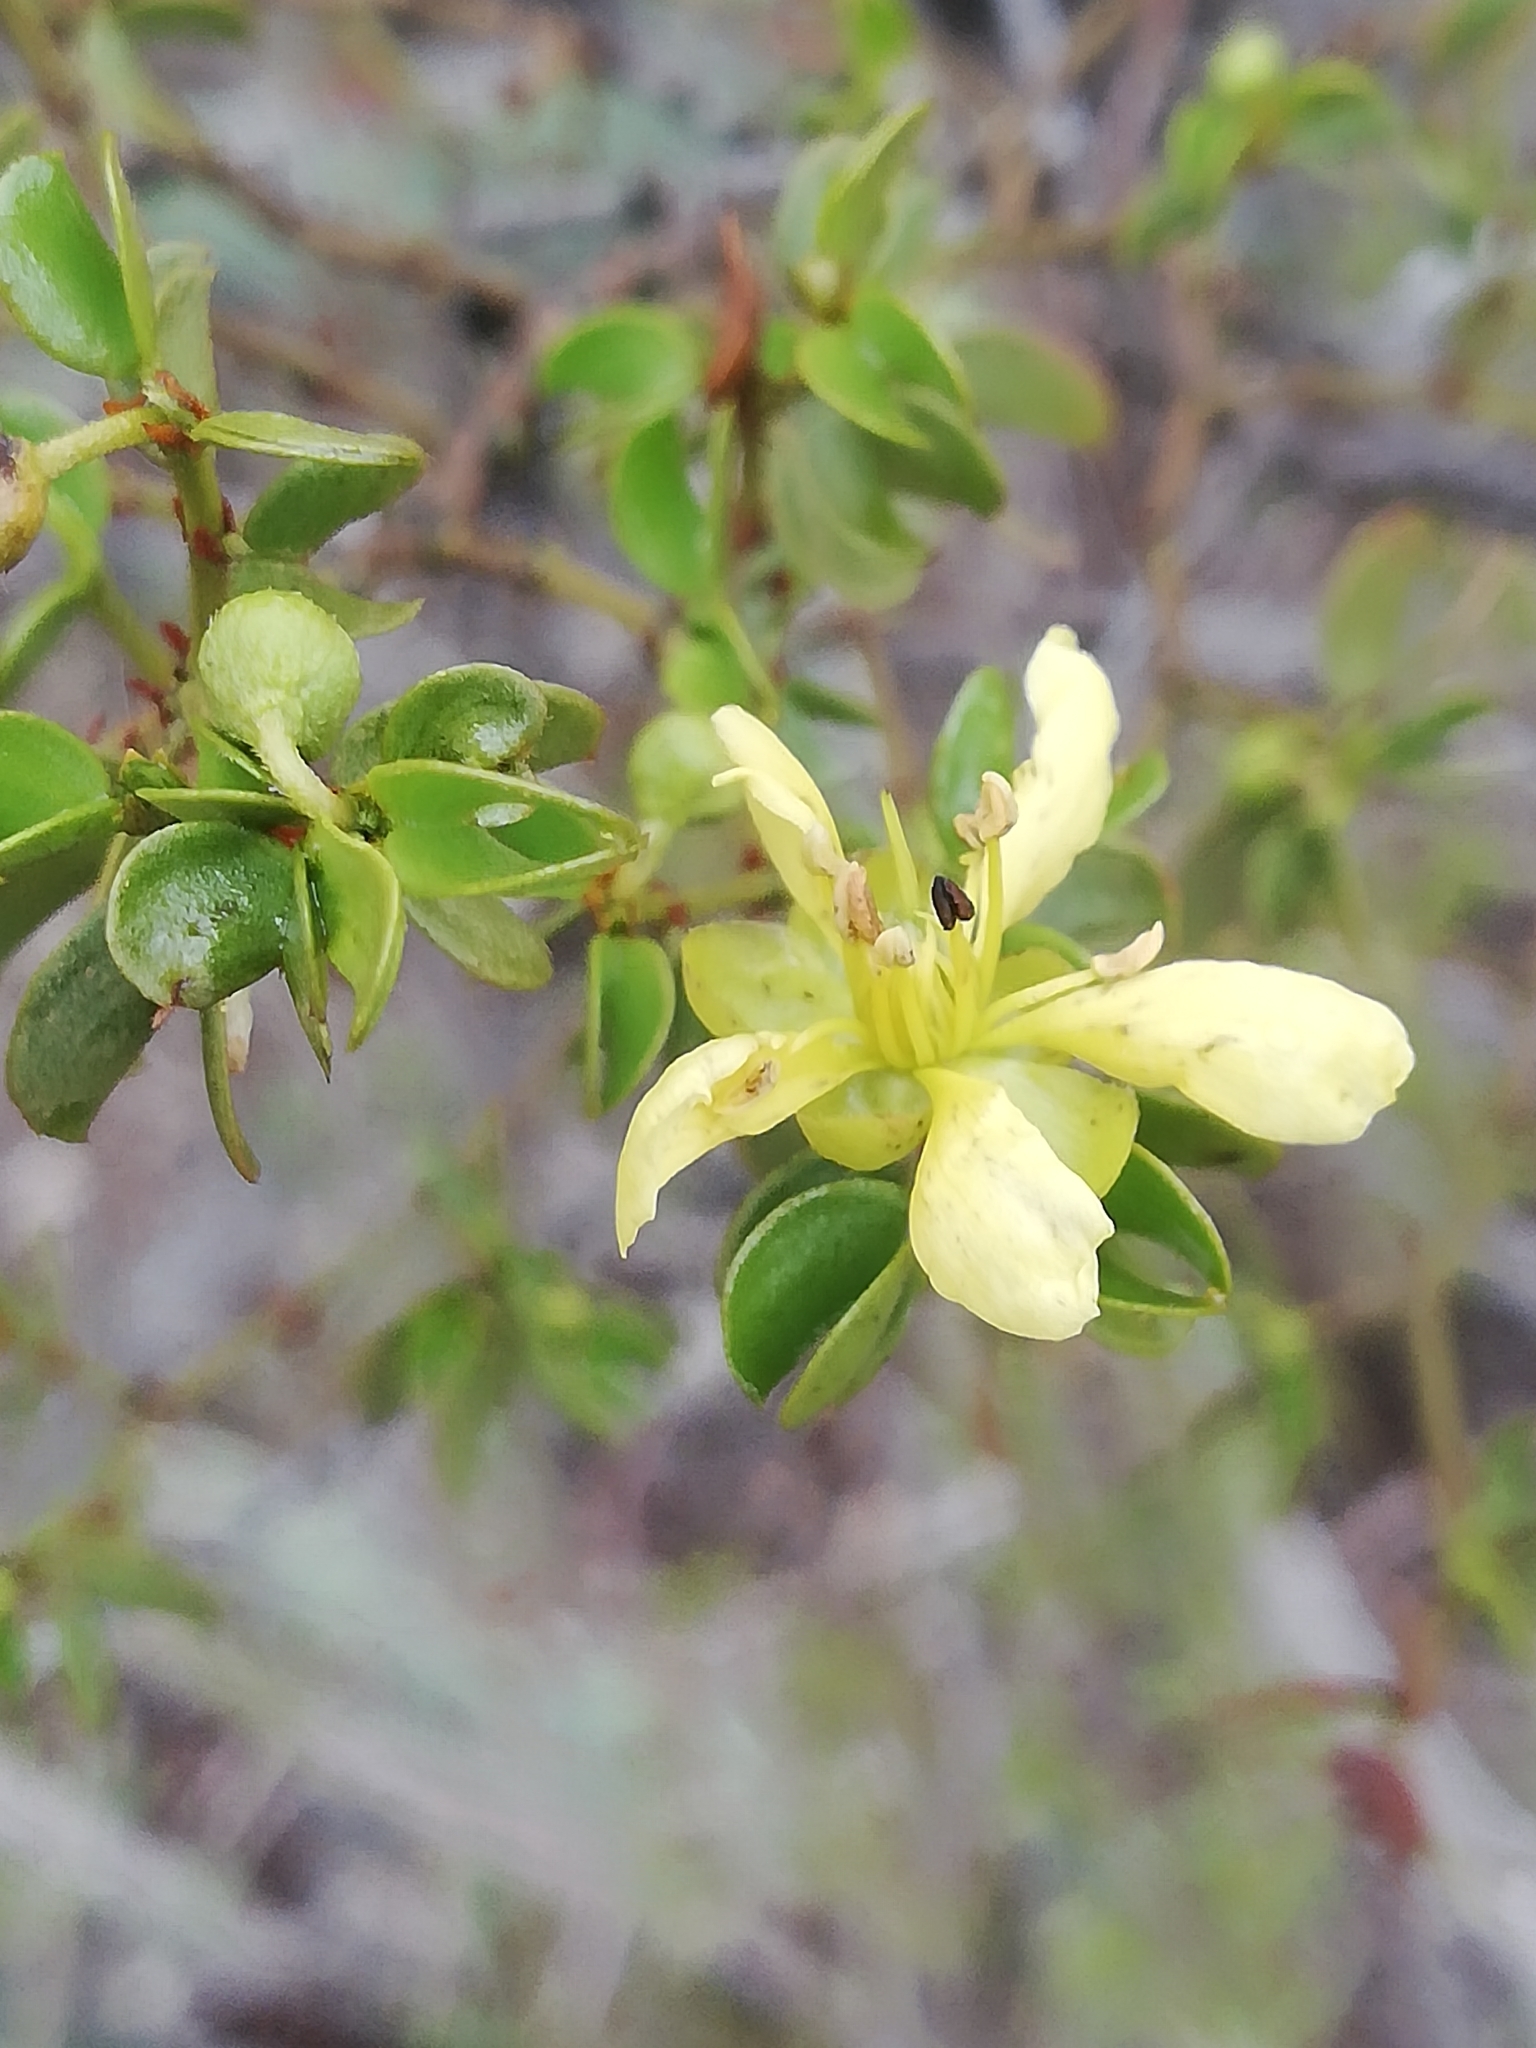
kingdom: Plantae
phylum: Tracheophyta
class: Magnoliopsida
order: Zygophyllales
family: Zygophyllaceae
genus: Larrea
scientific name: Larrea tridentata
